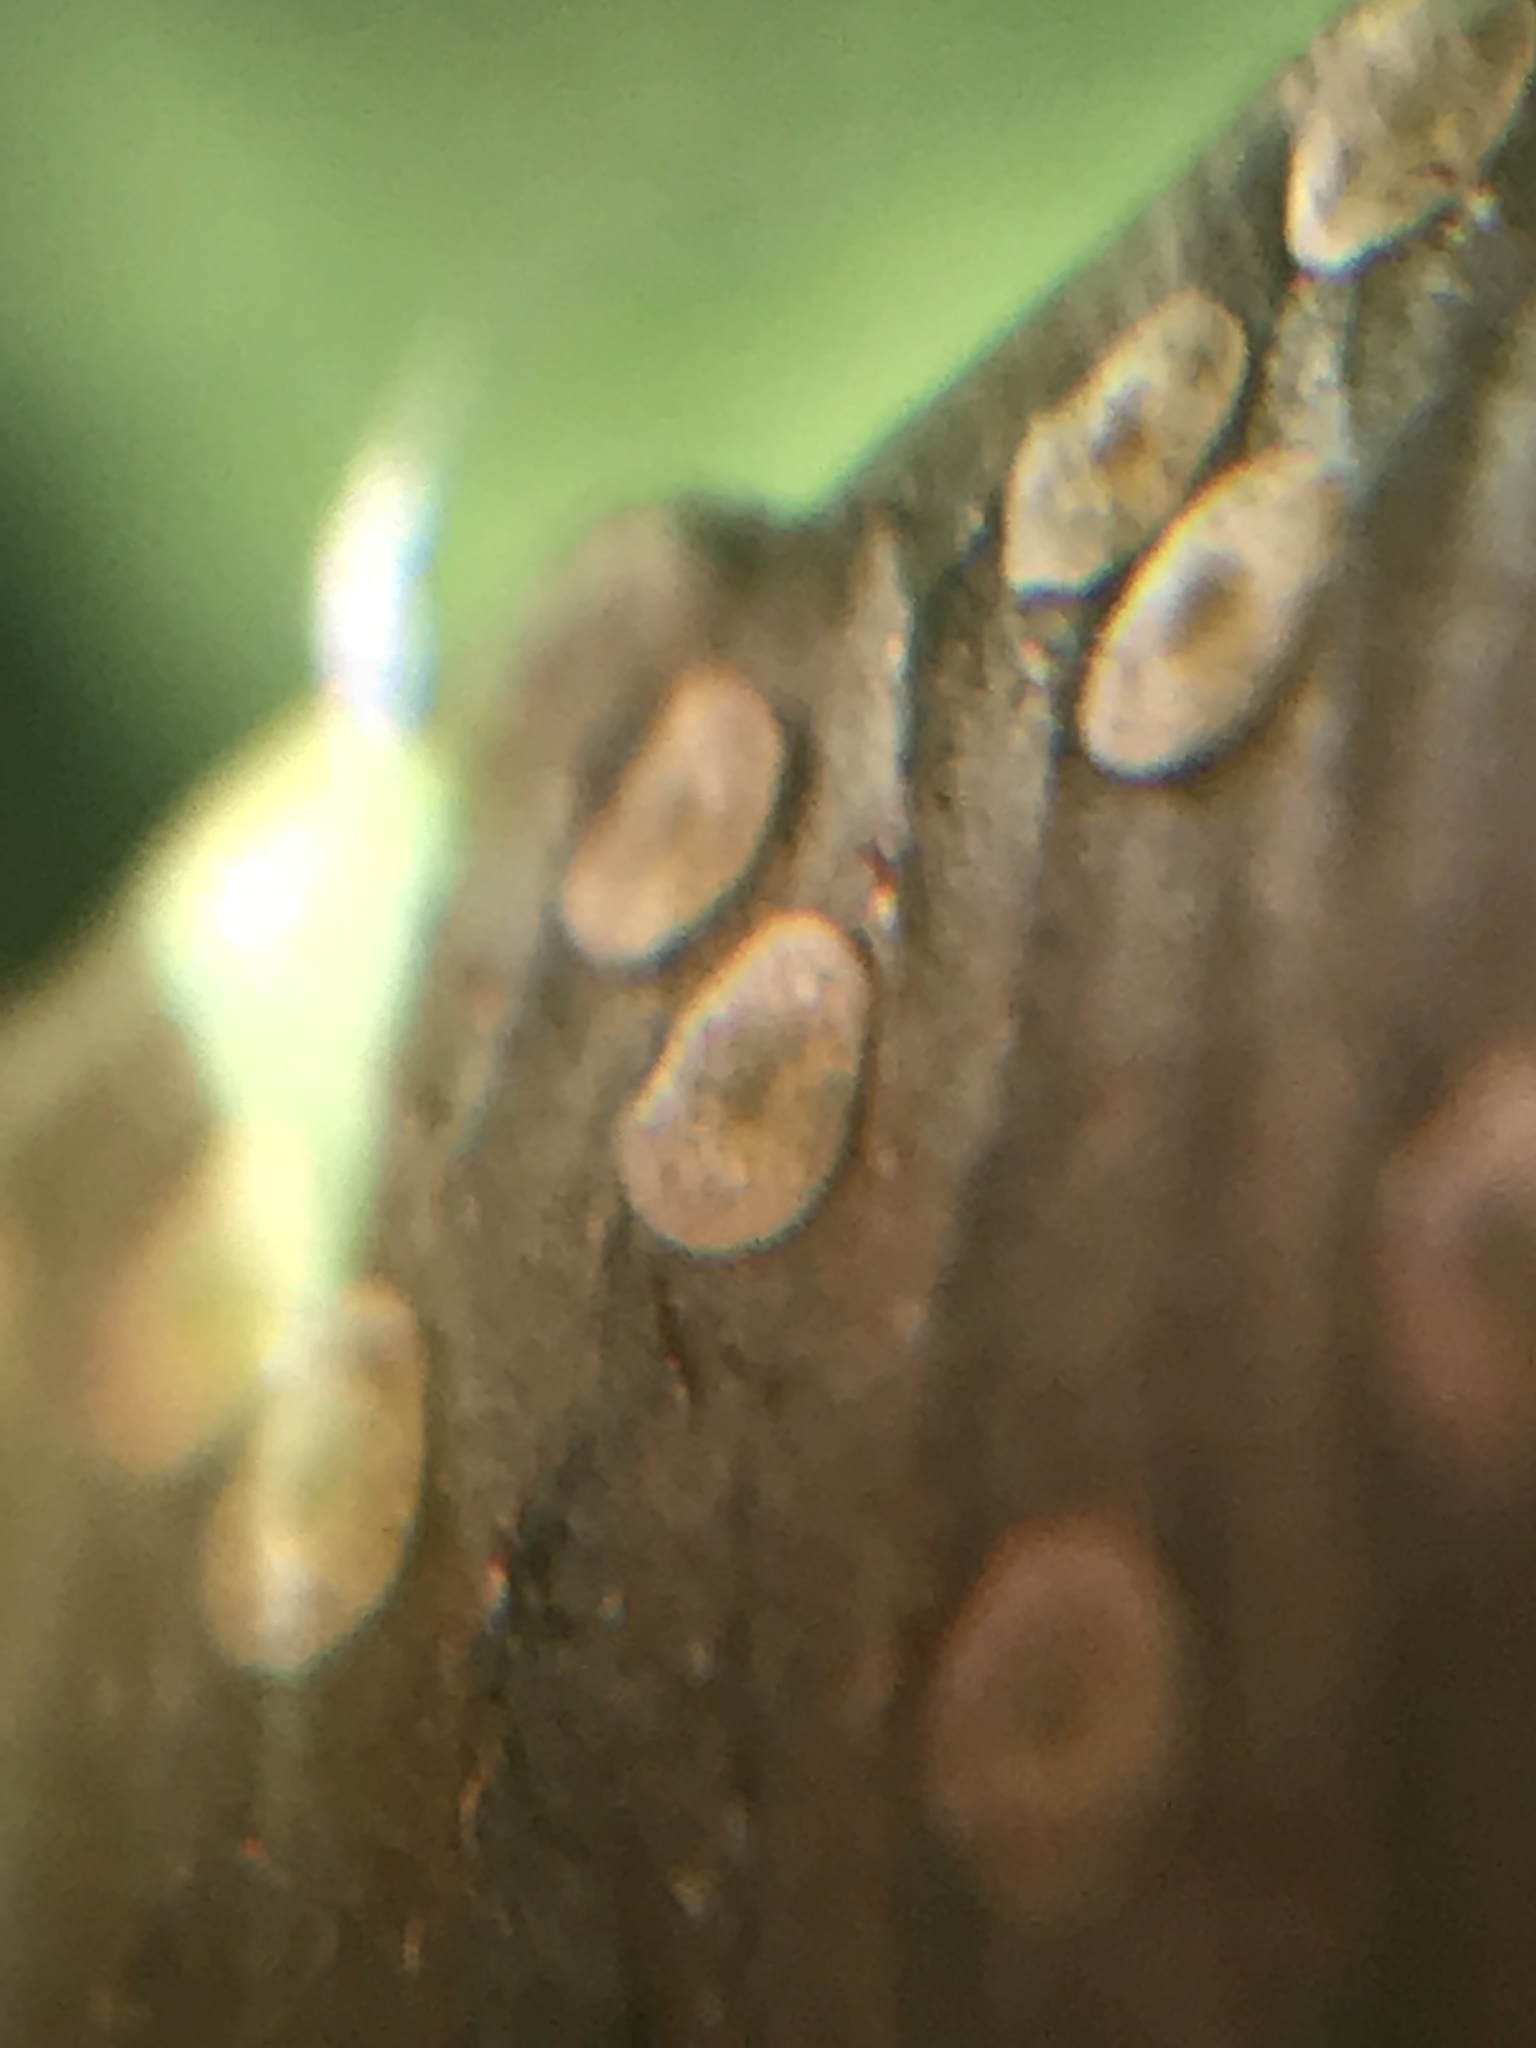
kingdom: Plantae
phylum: Tracheophyta
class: Polypodiopsida
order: Polypodiales
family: Dryopteridaceae
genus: Phanerophlebia
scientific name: Phanerophlebia umbonata
